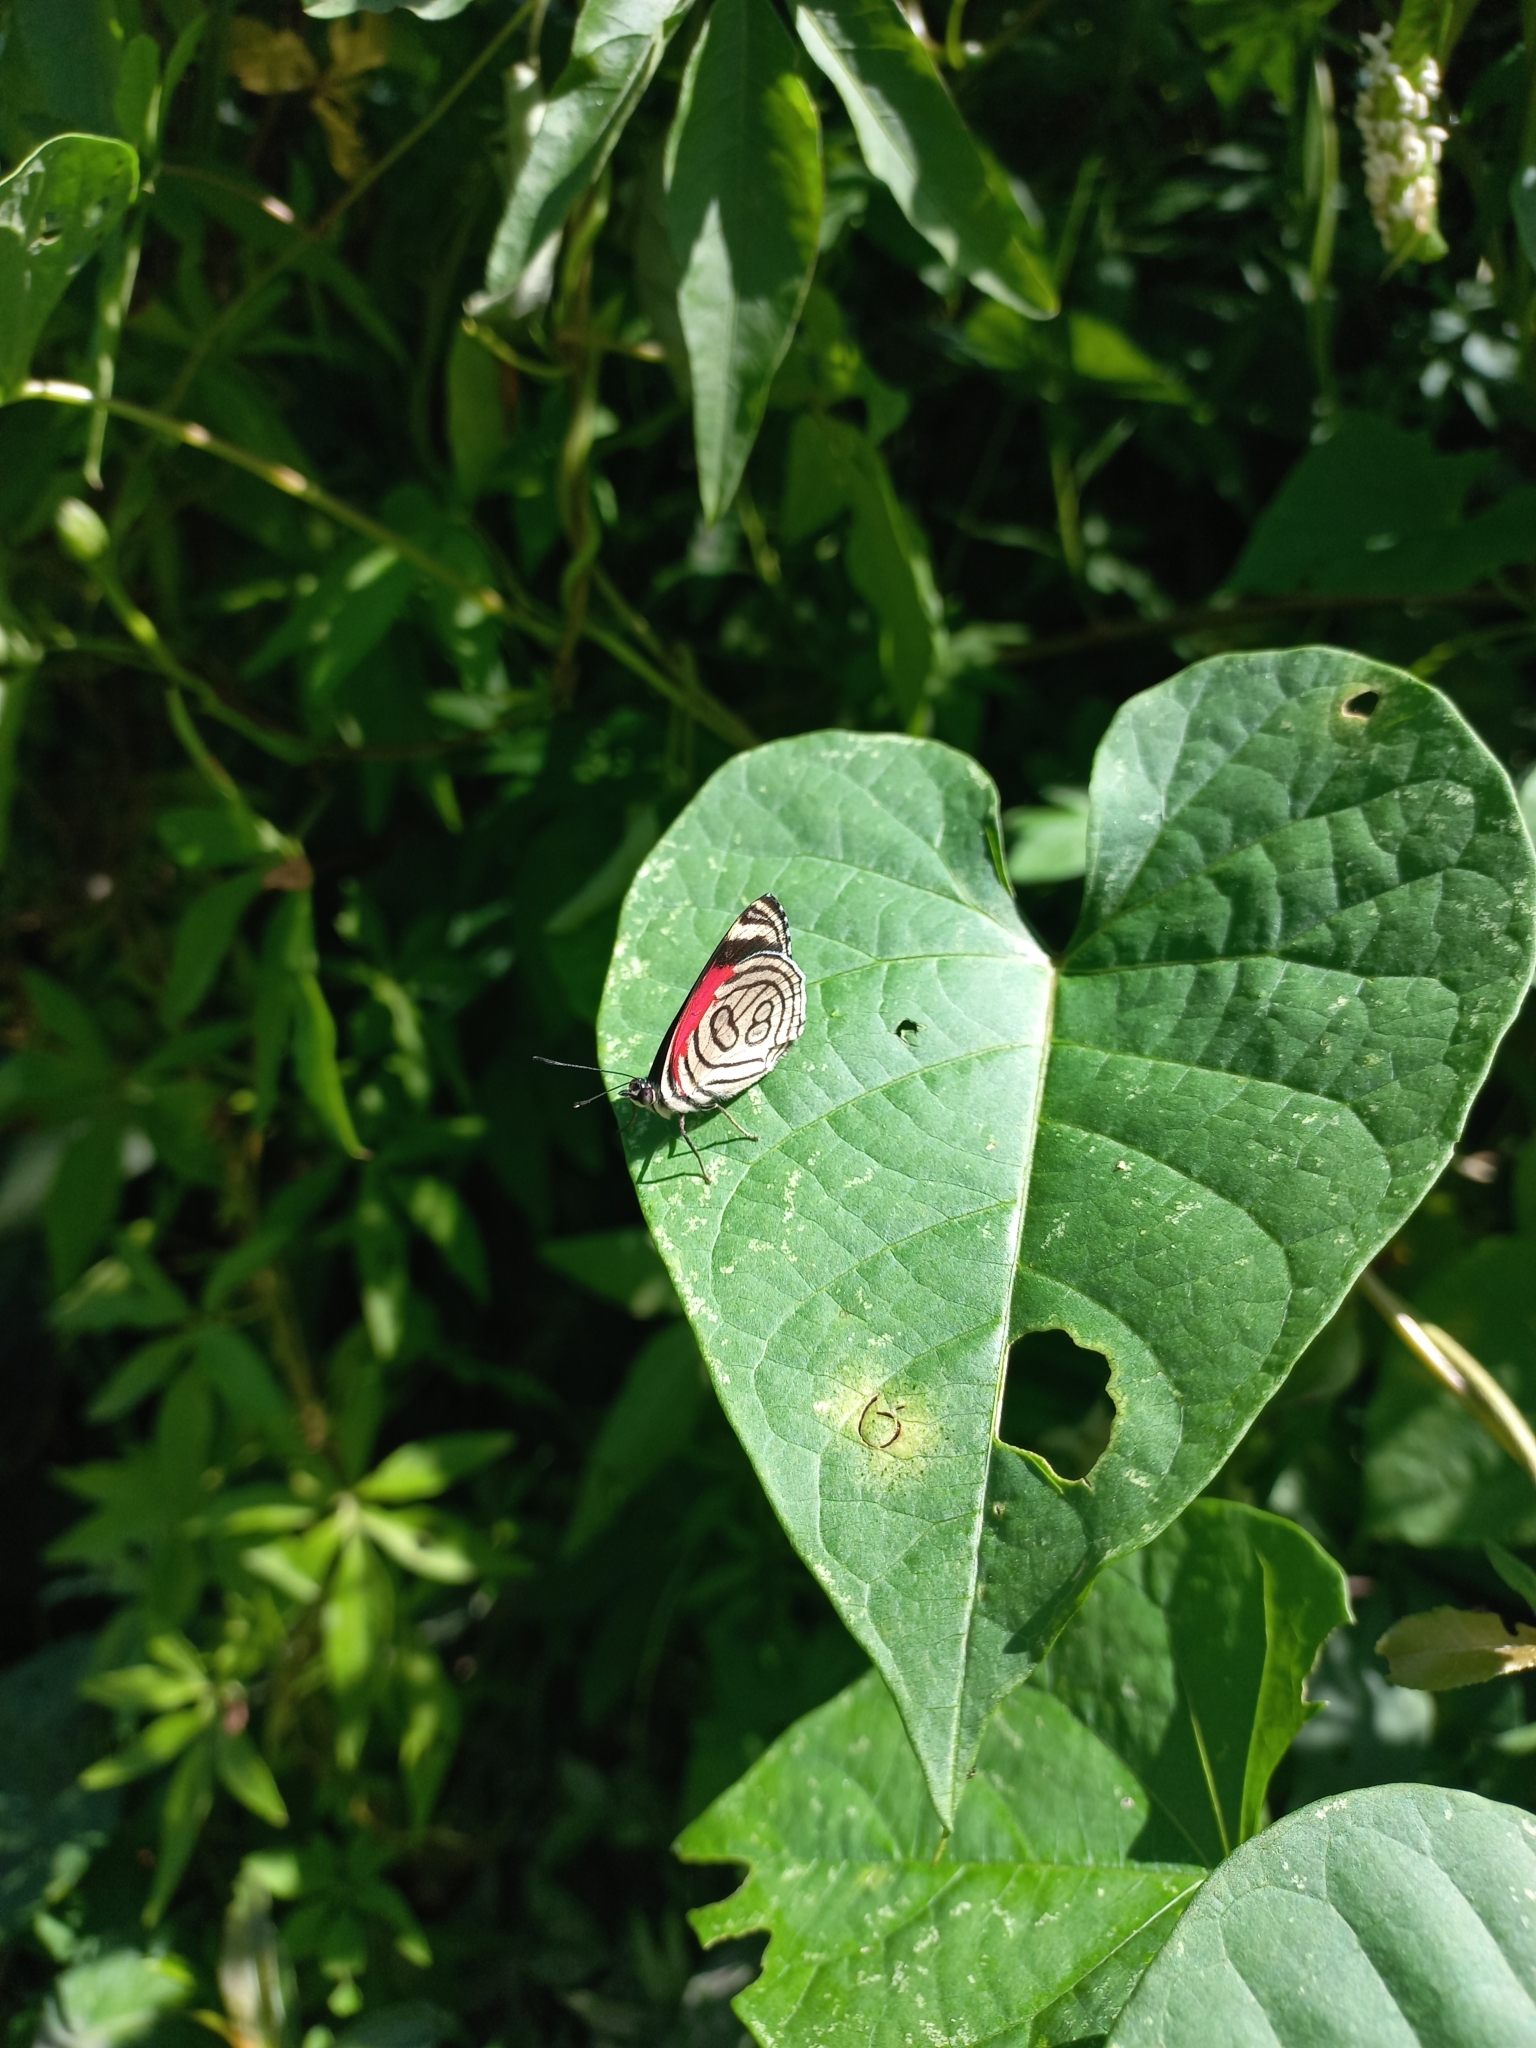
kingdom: Animalia
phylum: Arthropoda
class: Insecta
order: Lepidoptera
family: Nymphalidae
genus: Diaethria
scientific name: Diaethria candrena
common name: Number eighty
